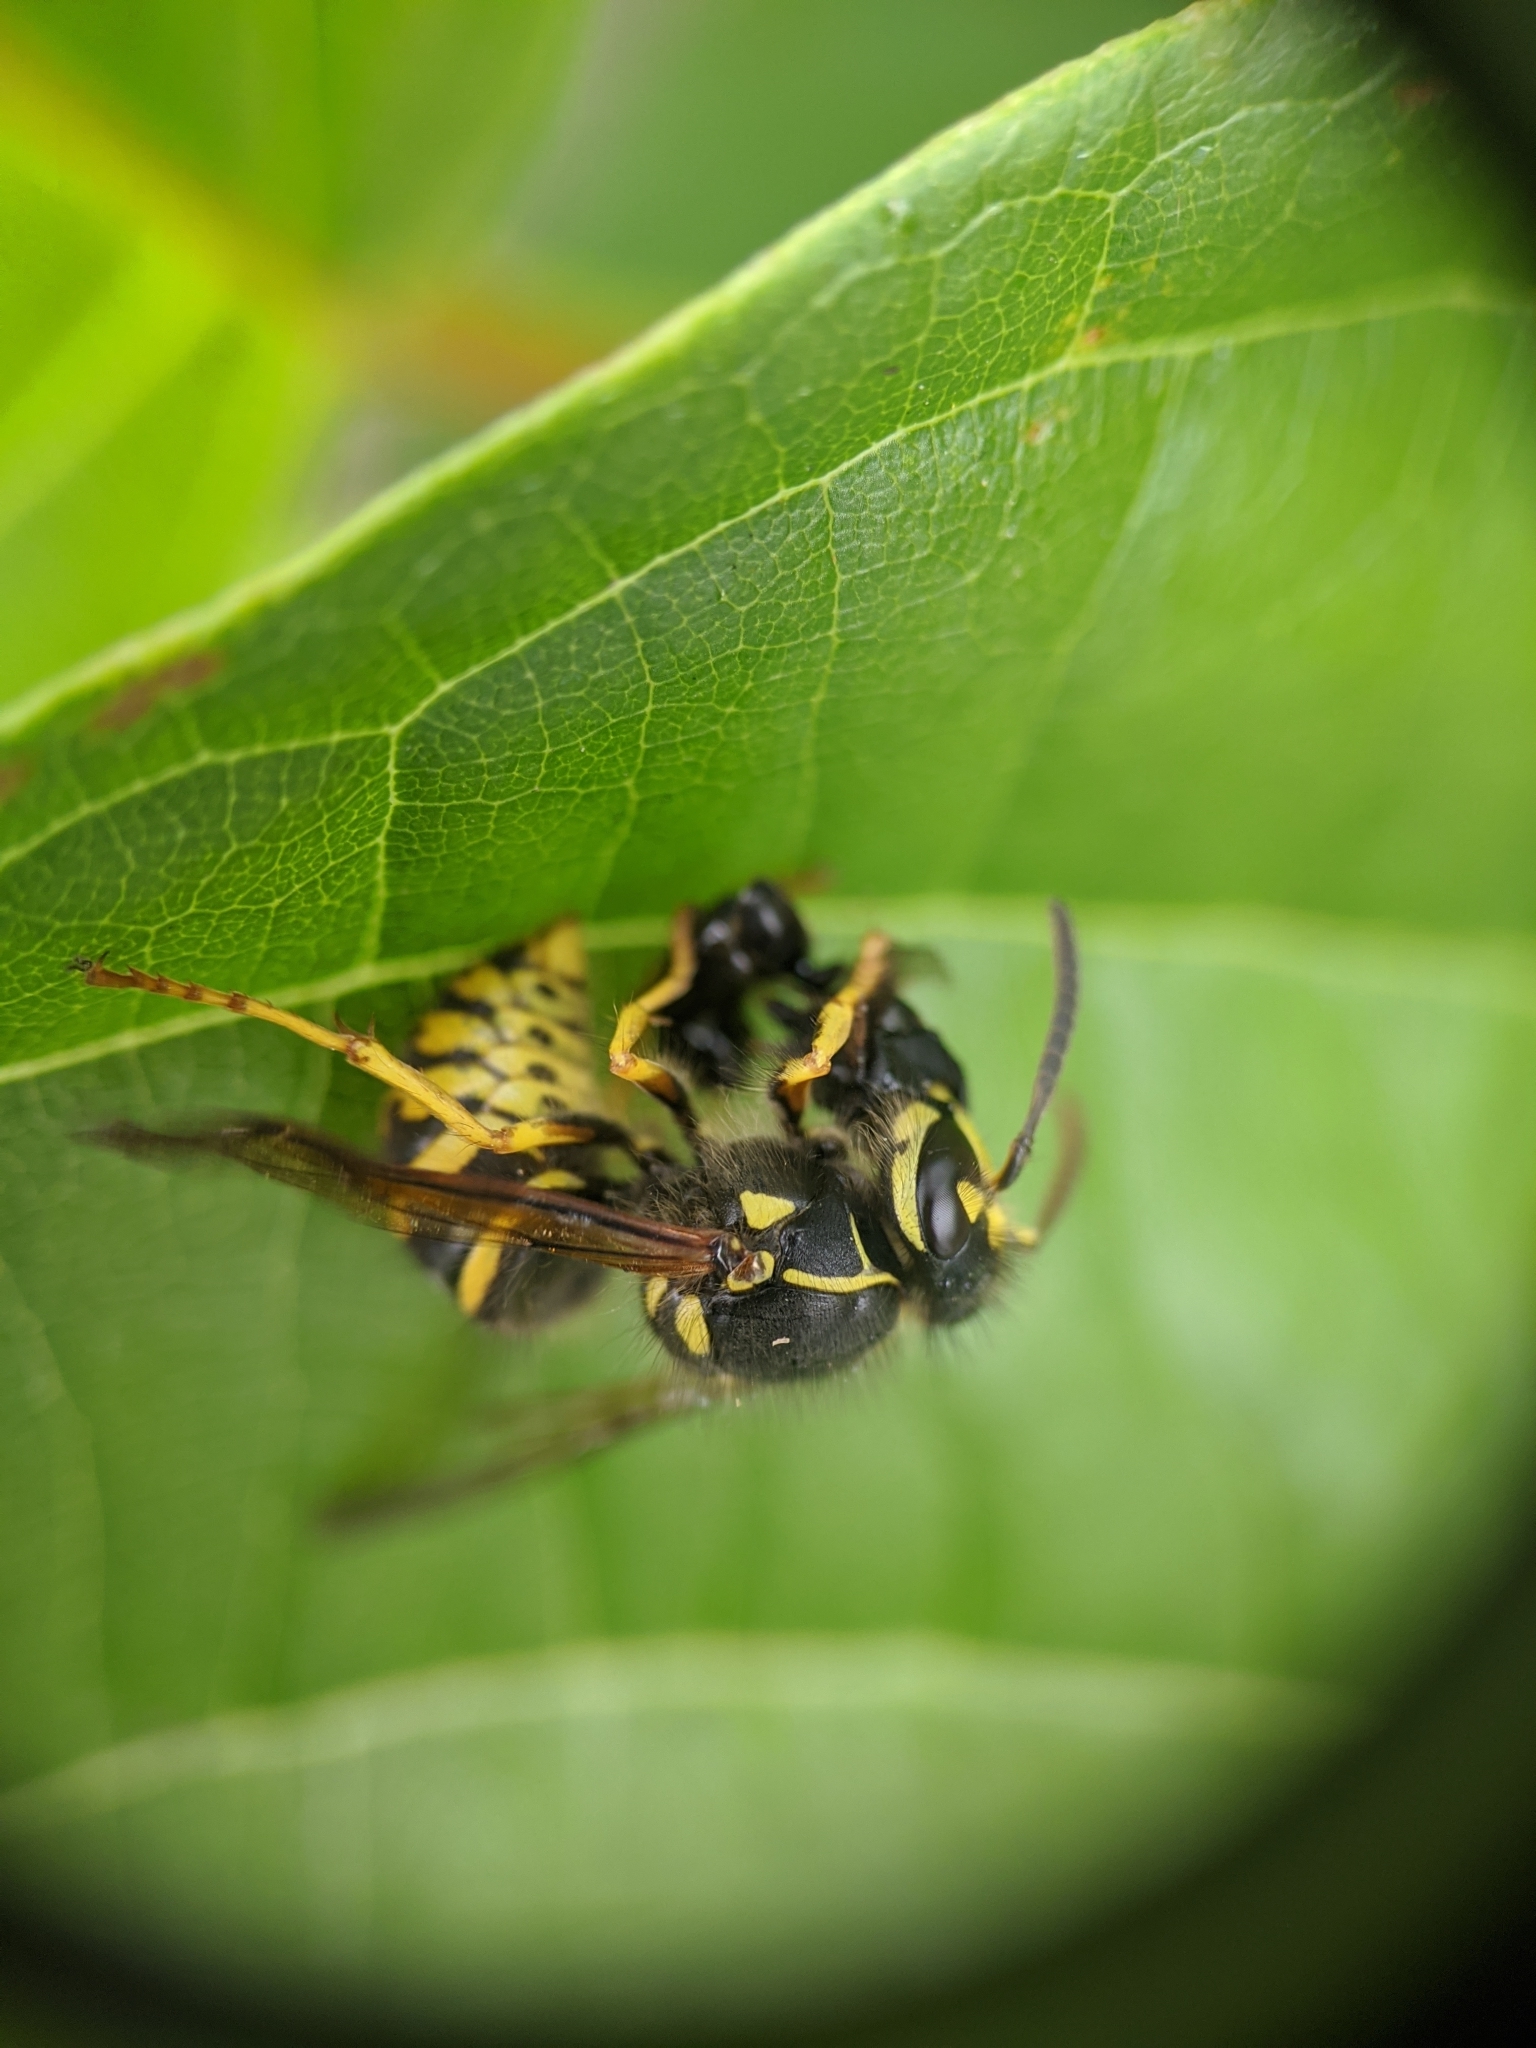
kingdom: Animalia
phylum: Arthropoda
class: Insecta
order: Hymenoptera
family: Vespidae
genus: Dolichovespula
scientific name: Dolichovespula arenaria
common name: Aerial yellowjacket
